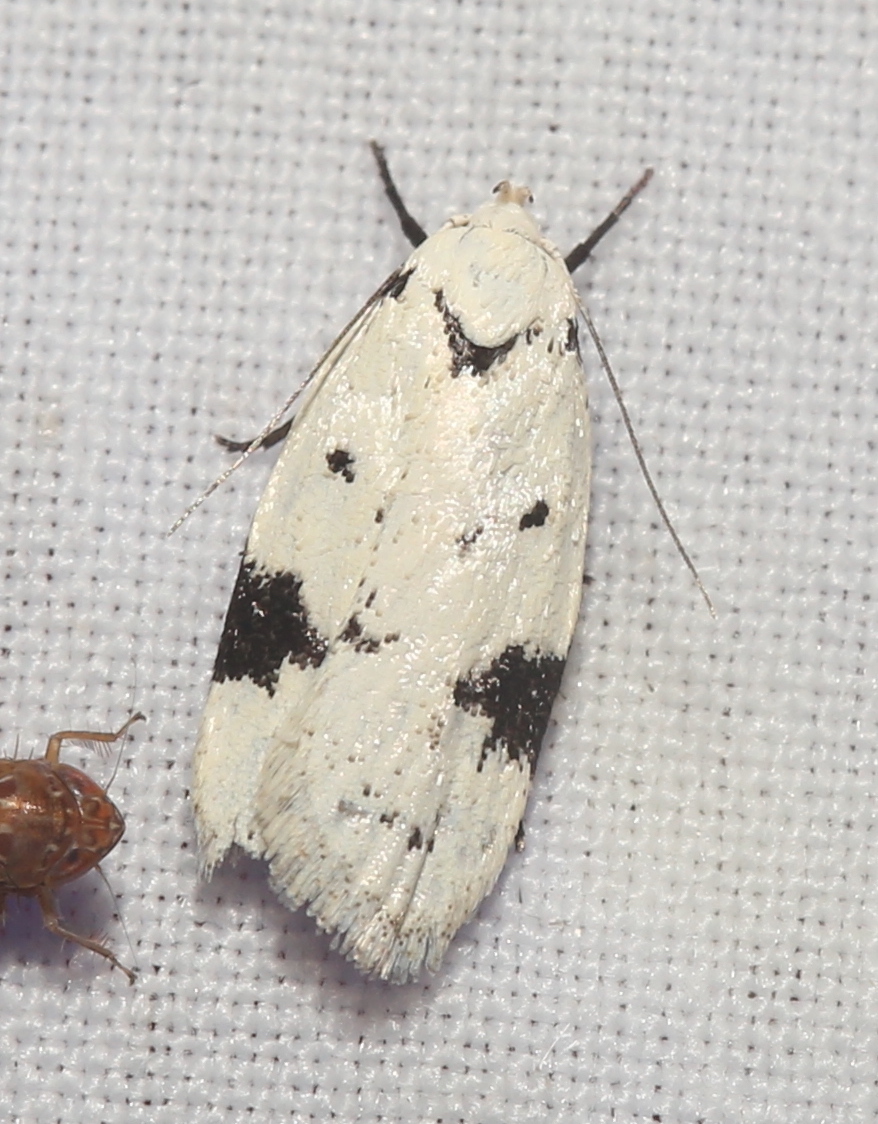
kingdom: Animalia
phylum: Arthropoda
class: Insecta
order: Lepidoptera
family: Oecophoridae
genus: Inga
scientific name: Inga sparsiciliella
